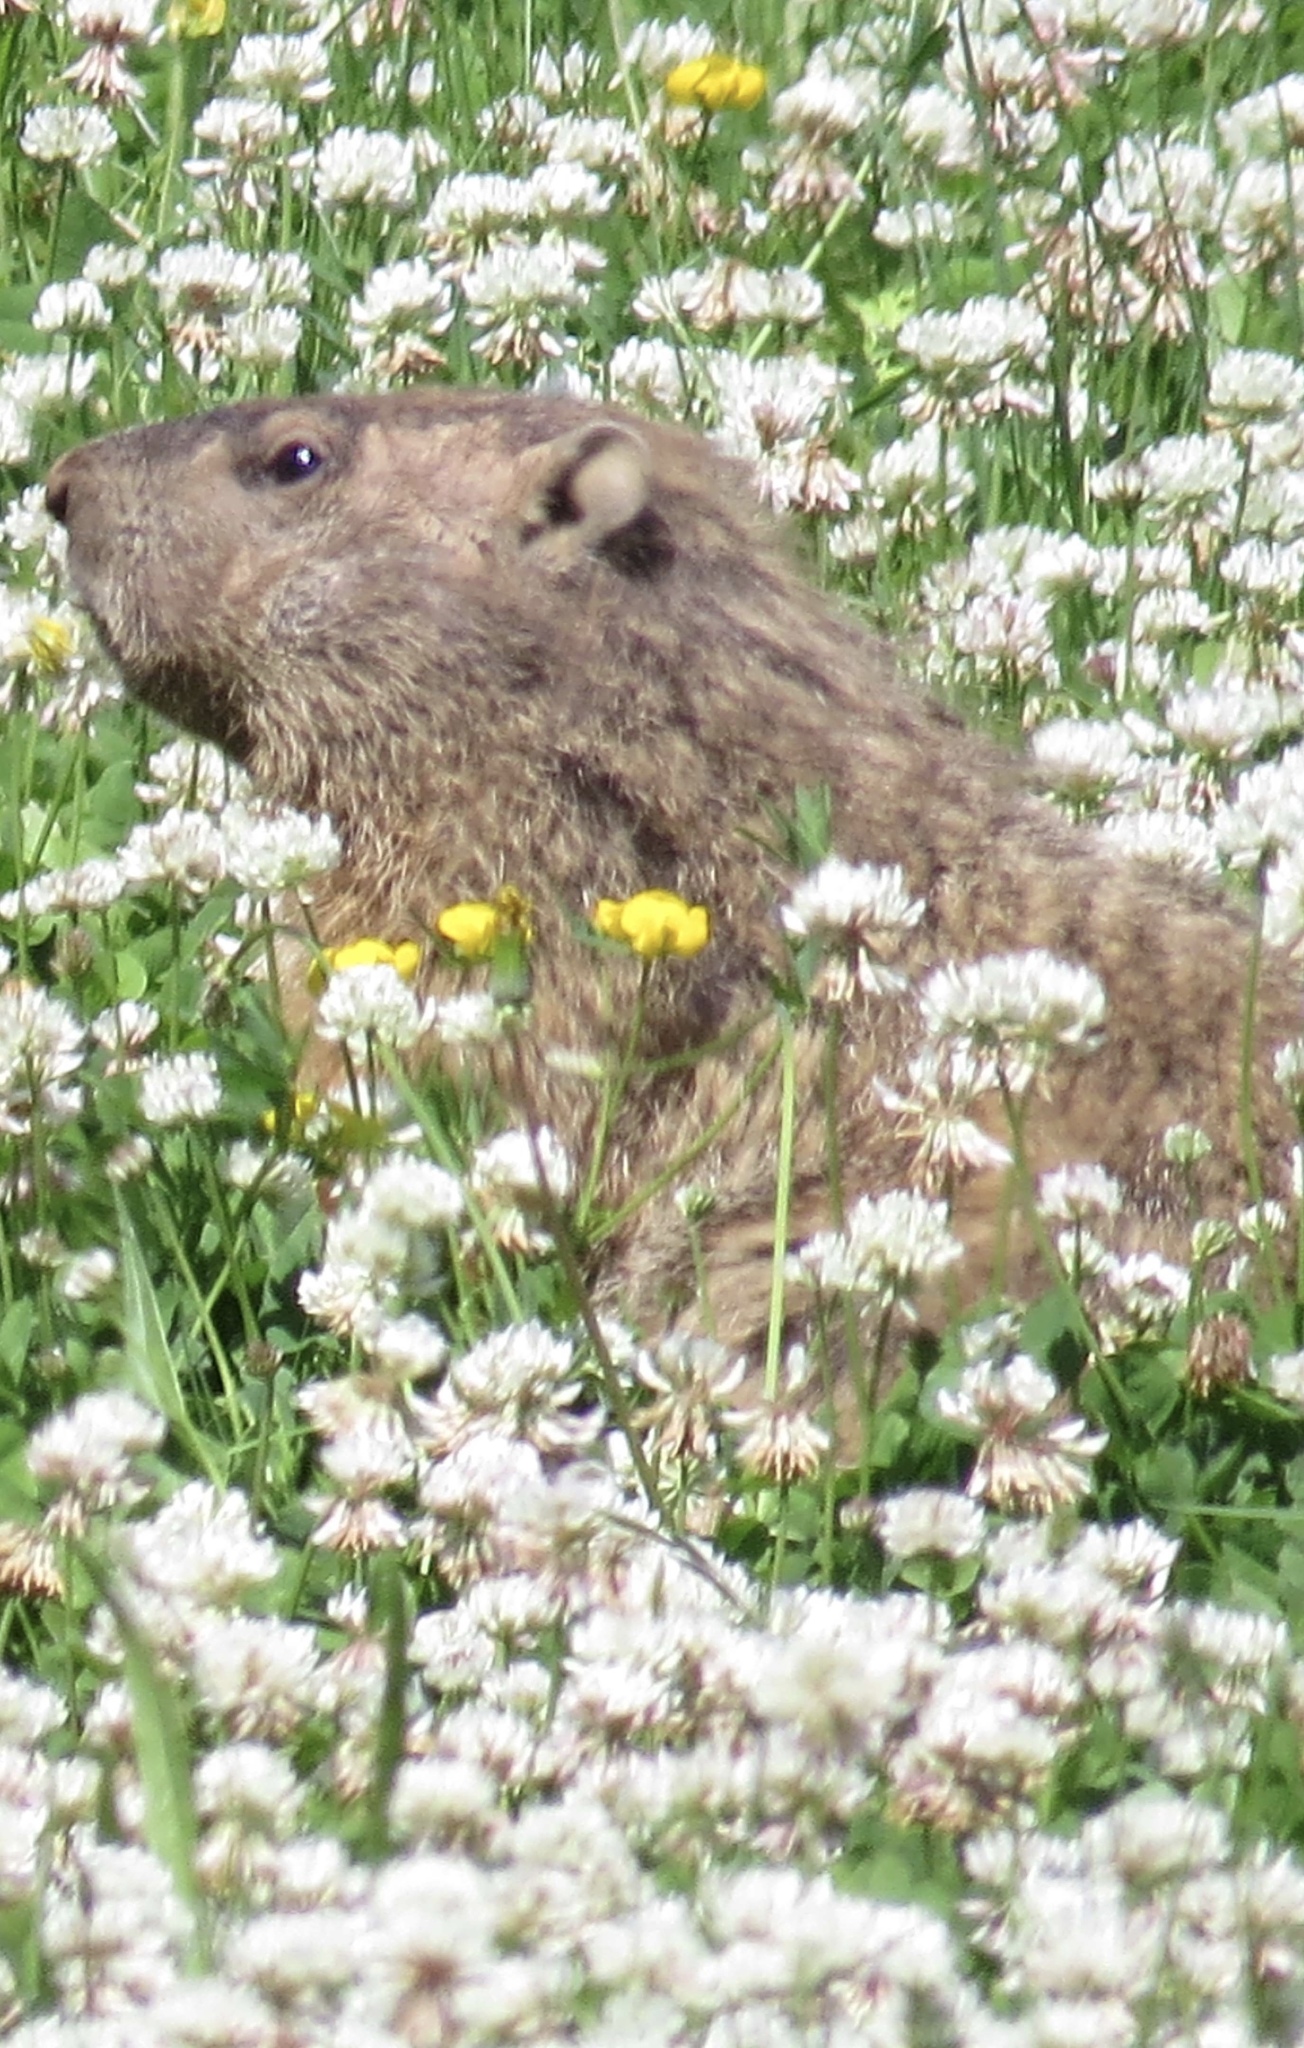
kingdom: Animalia
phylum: Chordata
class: Mammalia
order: Rodentia
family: Sciuridae
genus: Marmota
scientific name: Marmota monax
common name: Groundhog
